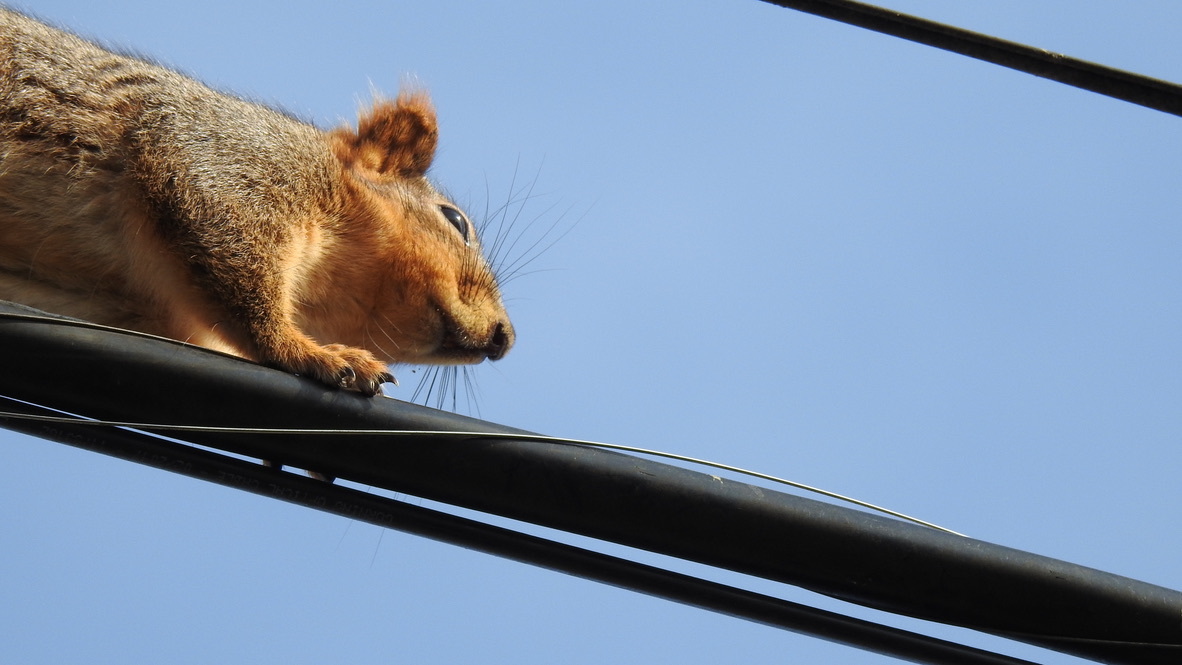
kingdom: Animalia
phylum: Chordata
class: Mammalia
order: Rodentia
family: Sciuridae
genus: Sciurus
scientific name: Sciurus niger
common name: Fox squirrel
